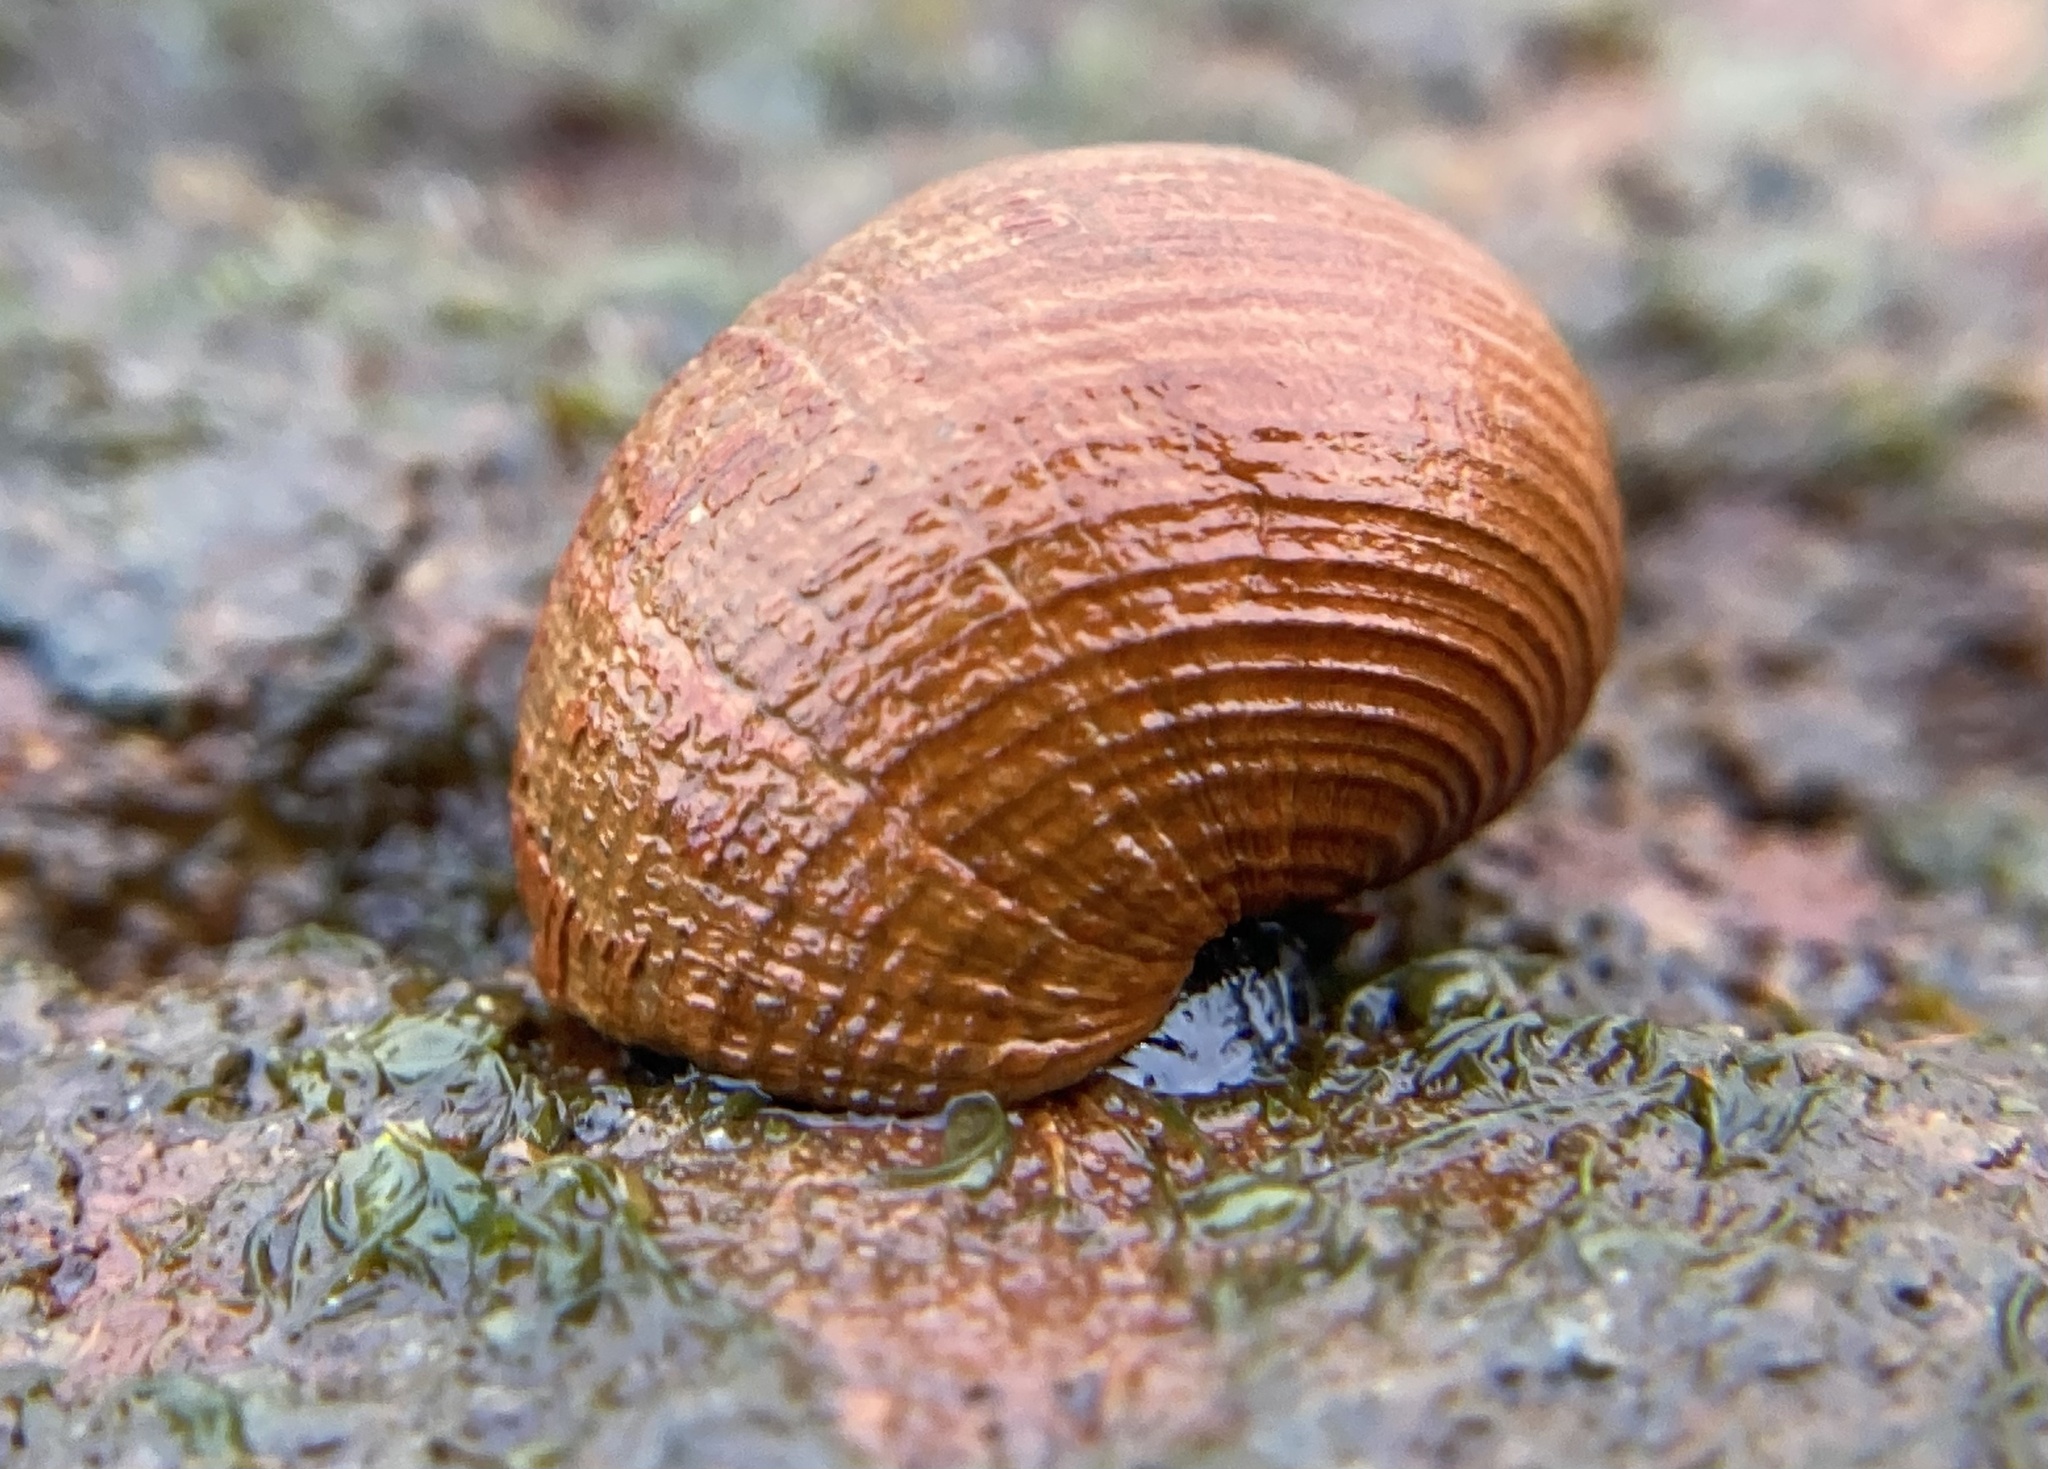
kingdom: Animalia
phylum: Mollusca
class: Gastropoda
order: Littorinimorpha
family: Littorinidae
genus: Littorina
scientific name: Littorina littorea
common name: Common periwinkle
